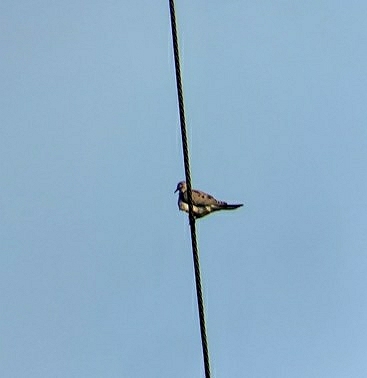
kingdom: Animalia
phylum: Chordata
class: Aves
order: Columbiformes
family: Columbidae
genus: Zenaida
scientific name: Zenaida macroura
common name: Mourning dove
